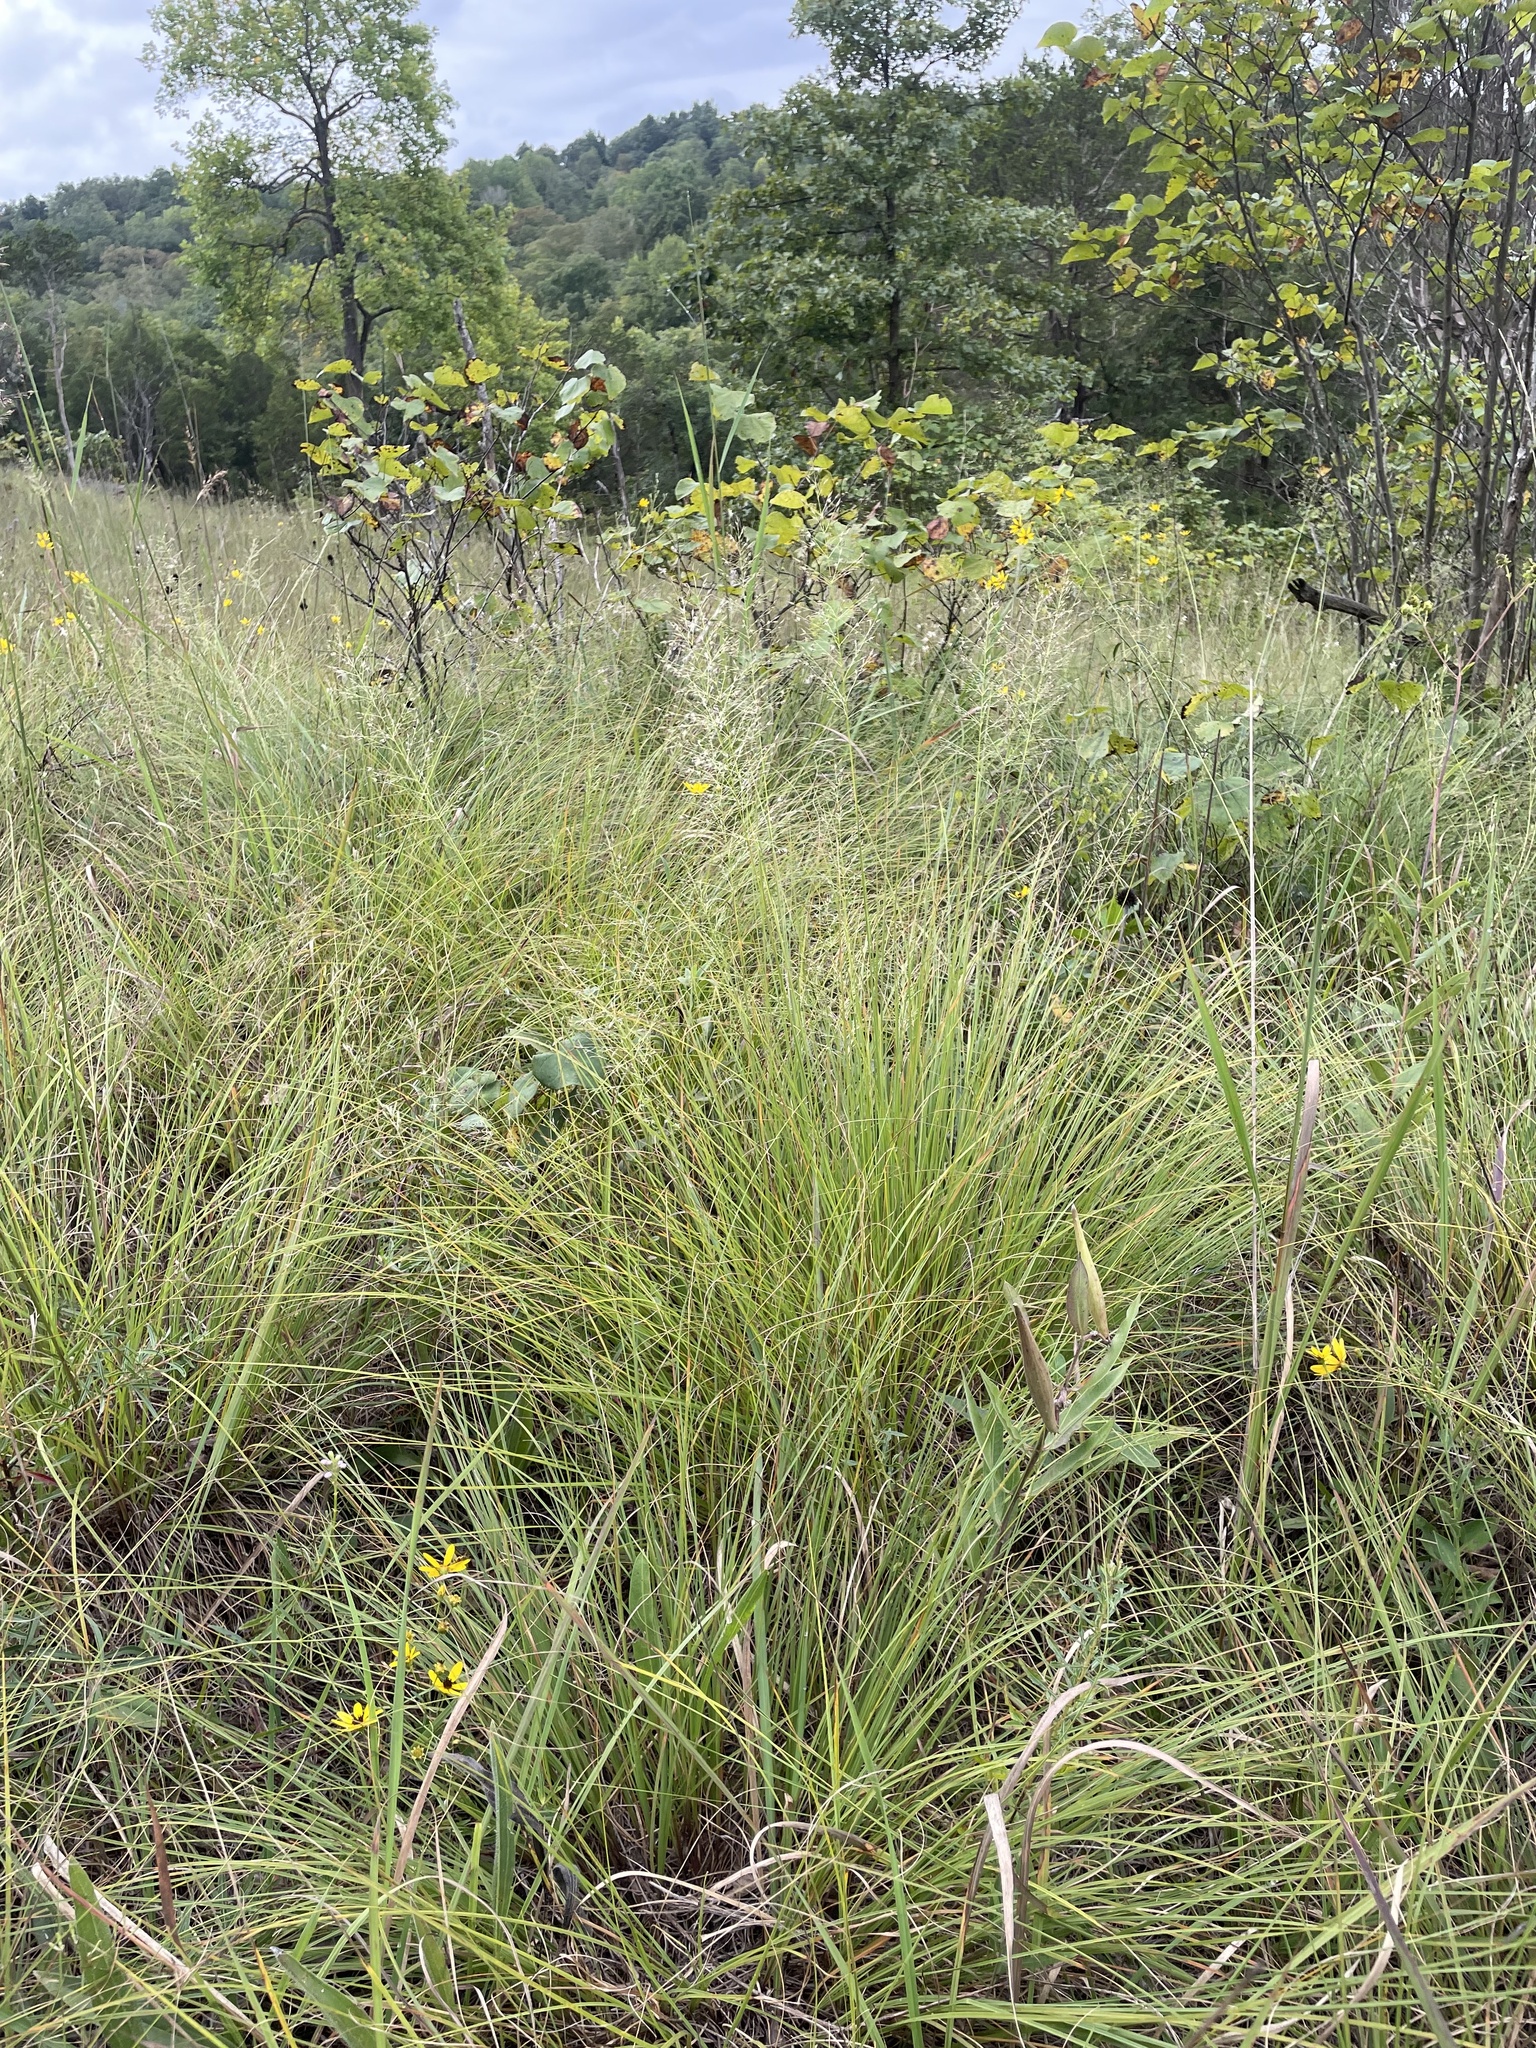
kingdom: Plantae
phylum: Tracheophyta
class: Liliopsida
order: Poales
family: Poaceae
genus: Sporobolus
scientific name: Sporobolus heterolepis
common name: Prairie dropseed
